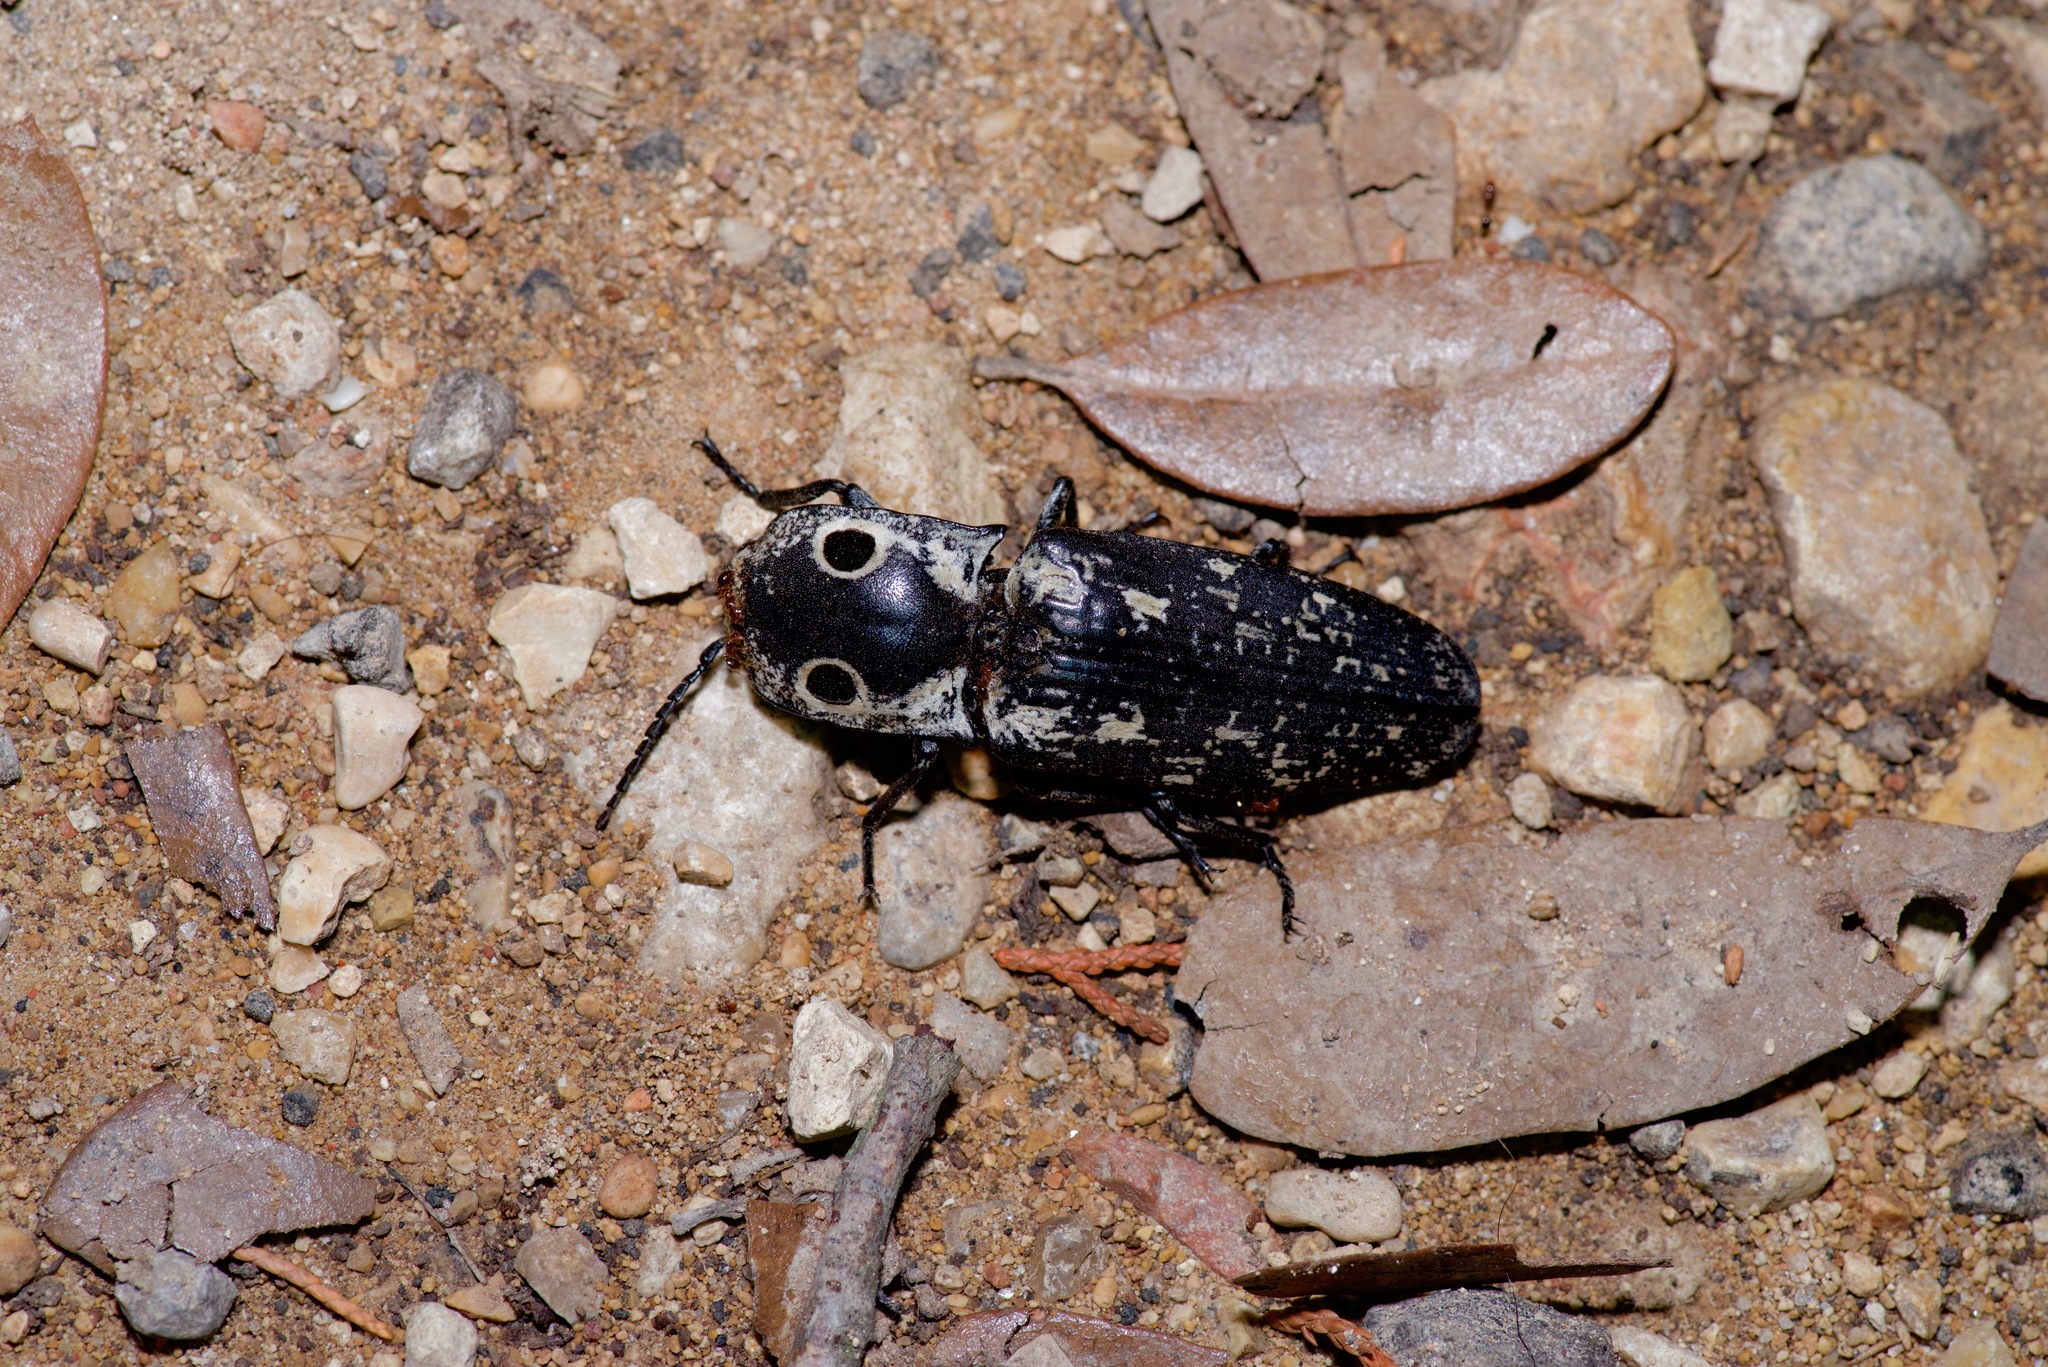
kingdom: Animalia
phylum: Arthropoda
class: Insecta
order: Coleoptera
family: Elateridae
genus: Alaus
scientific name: Alaus
